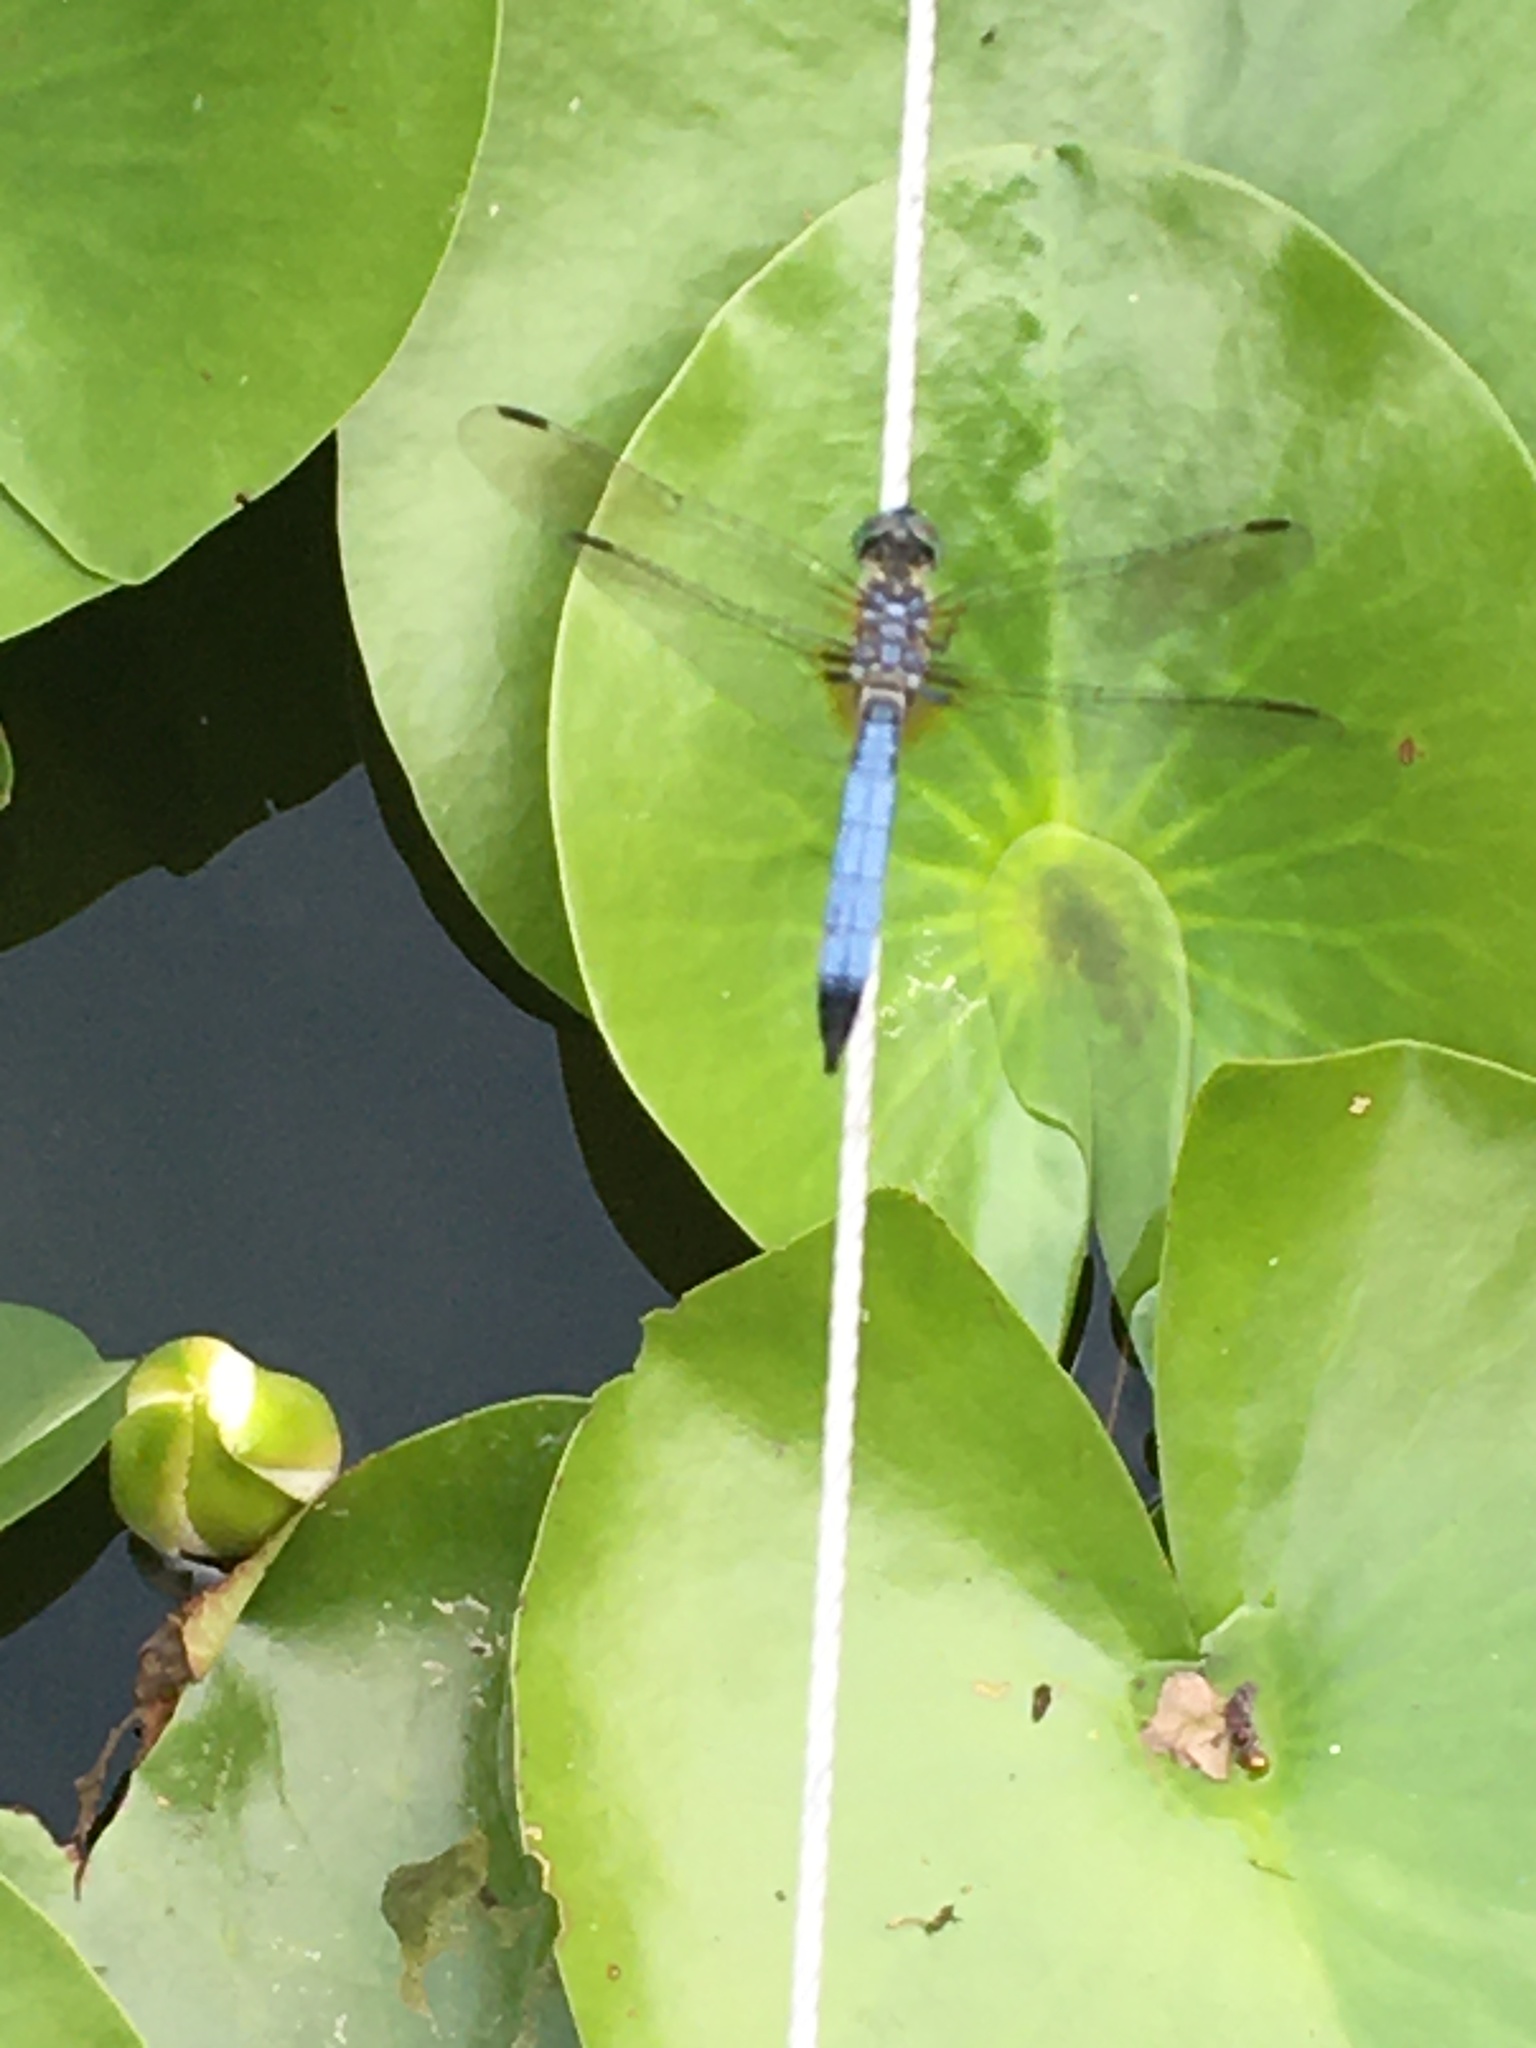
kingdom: Animalia
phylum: Arthropoda
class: Insecta
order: Odonata
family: Libellulidae
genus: Pachydiplax
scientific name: Pachydiplax longipennis
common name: Blue dasher
